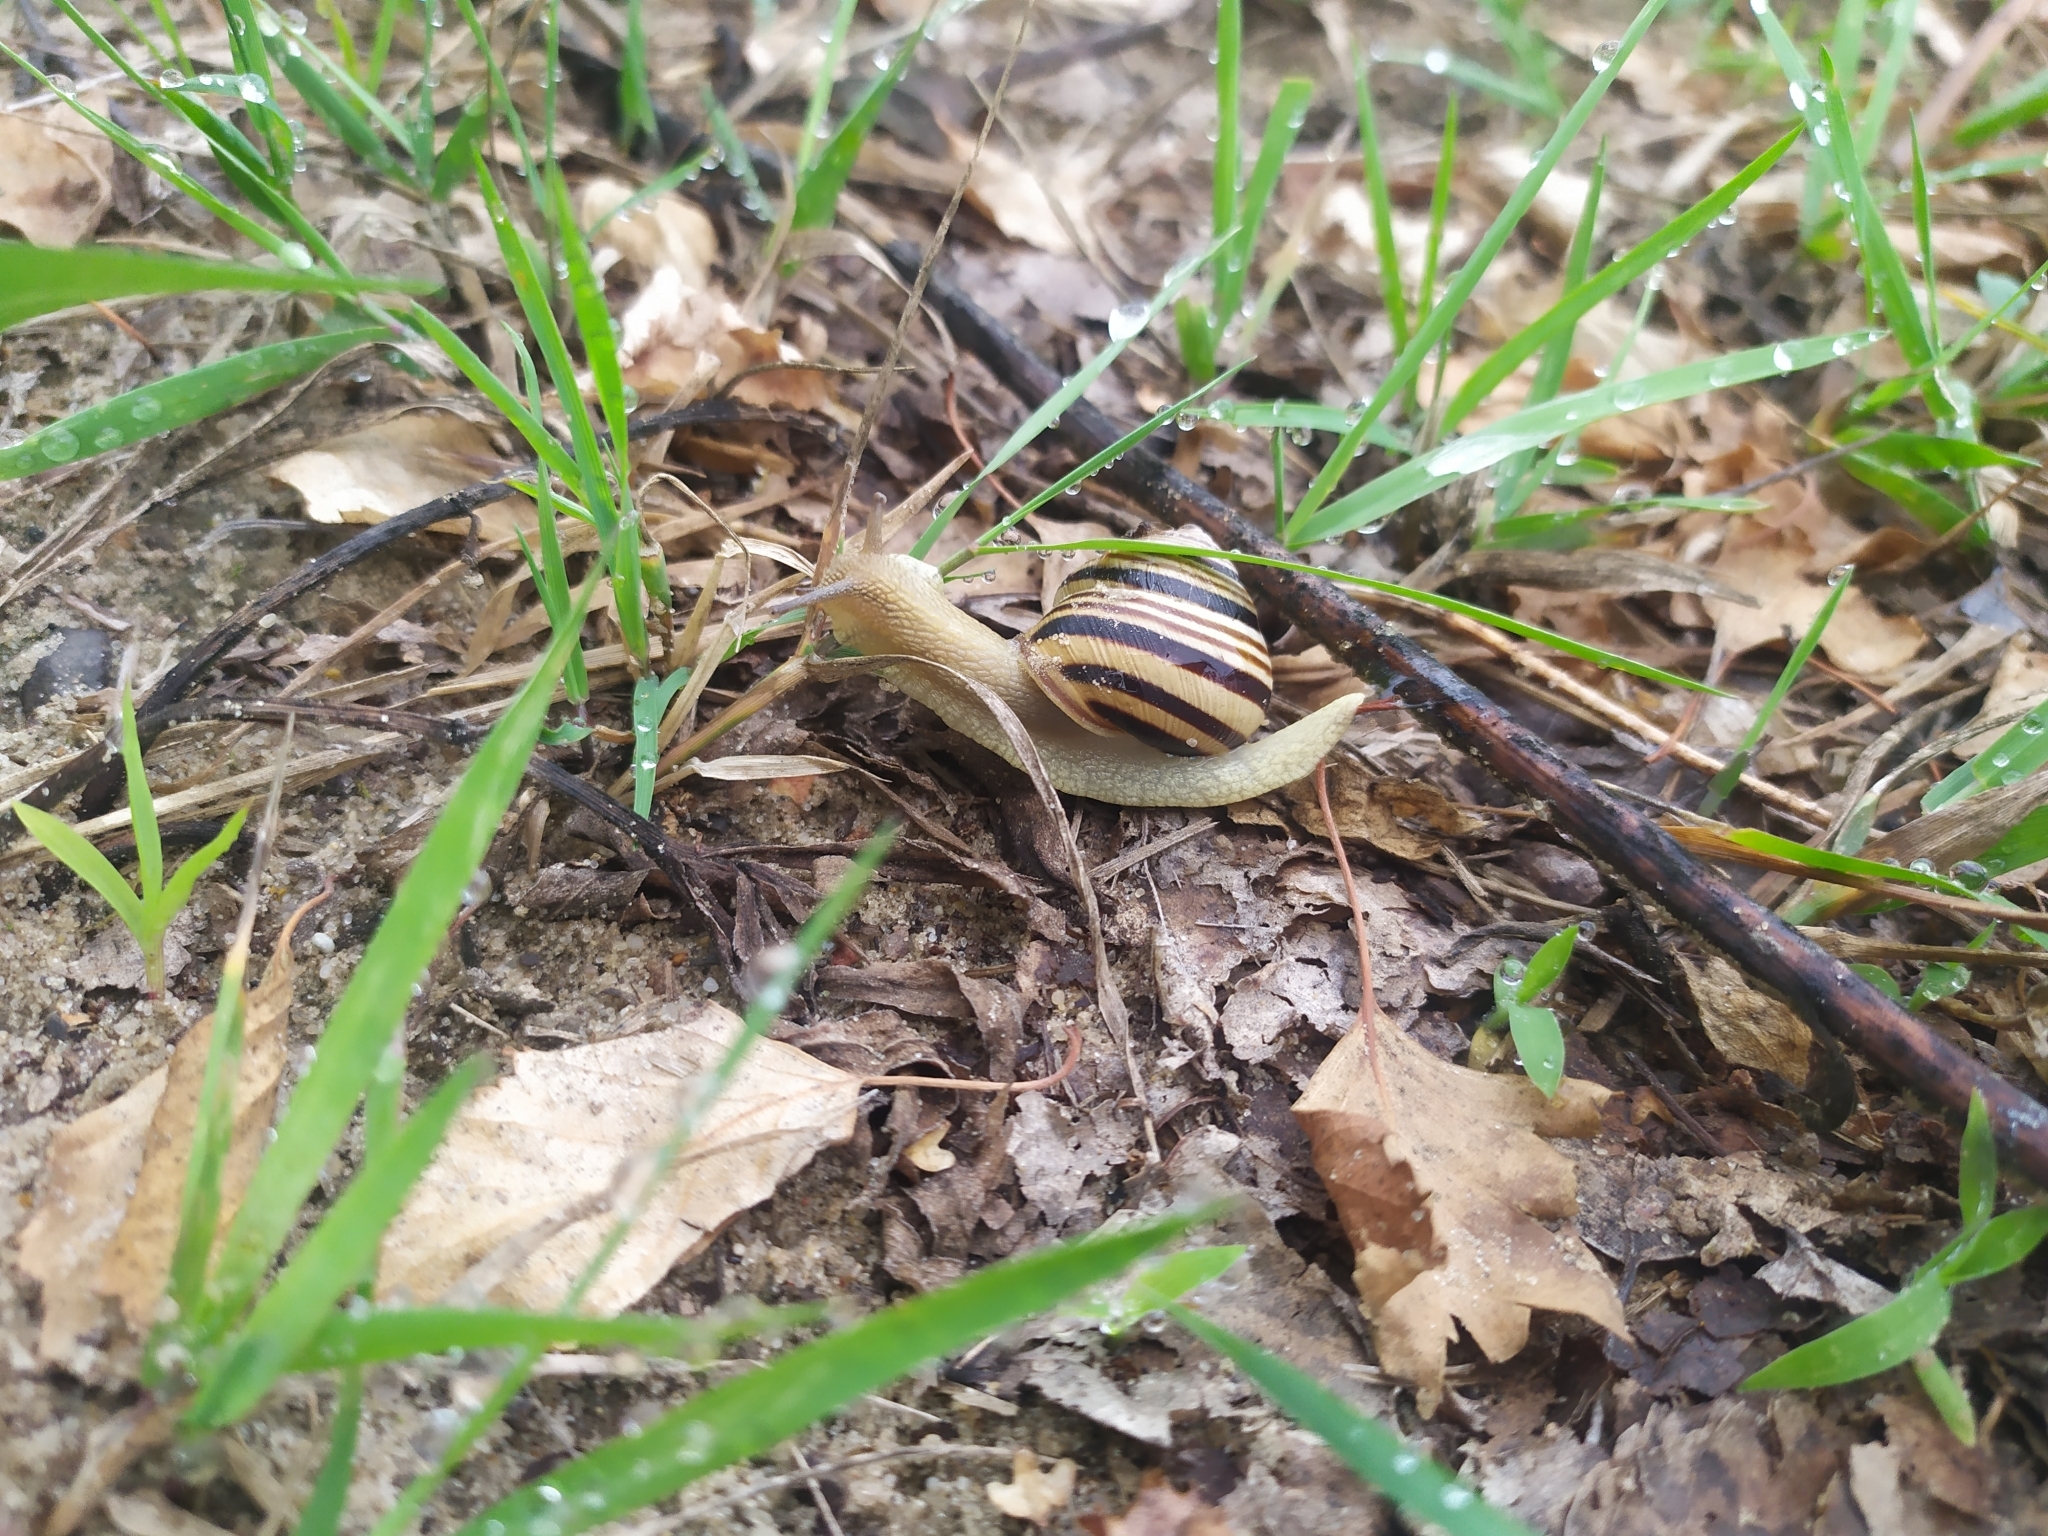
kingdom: Animalia
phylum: Mollusca
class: Gastropoda
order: Stylommatophora
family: Helicidae
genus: Caucasotachea
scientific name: Caucasotachea vindobonensis
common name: European helicid land snail
